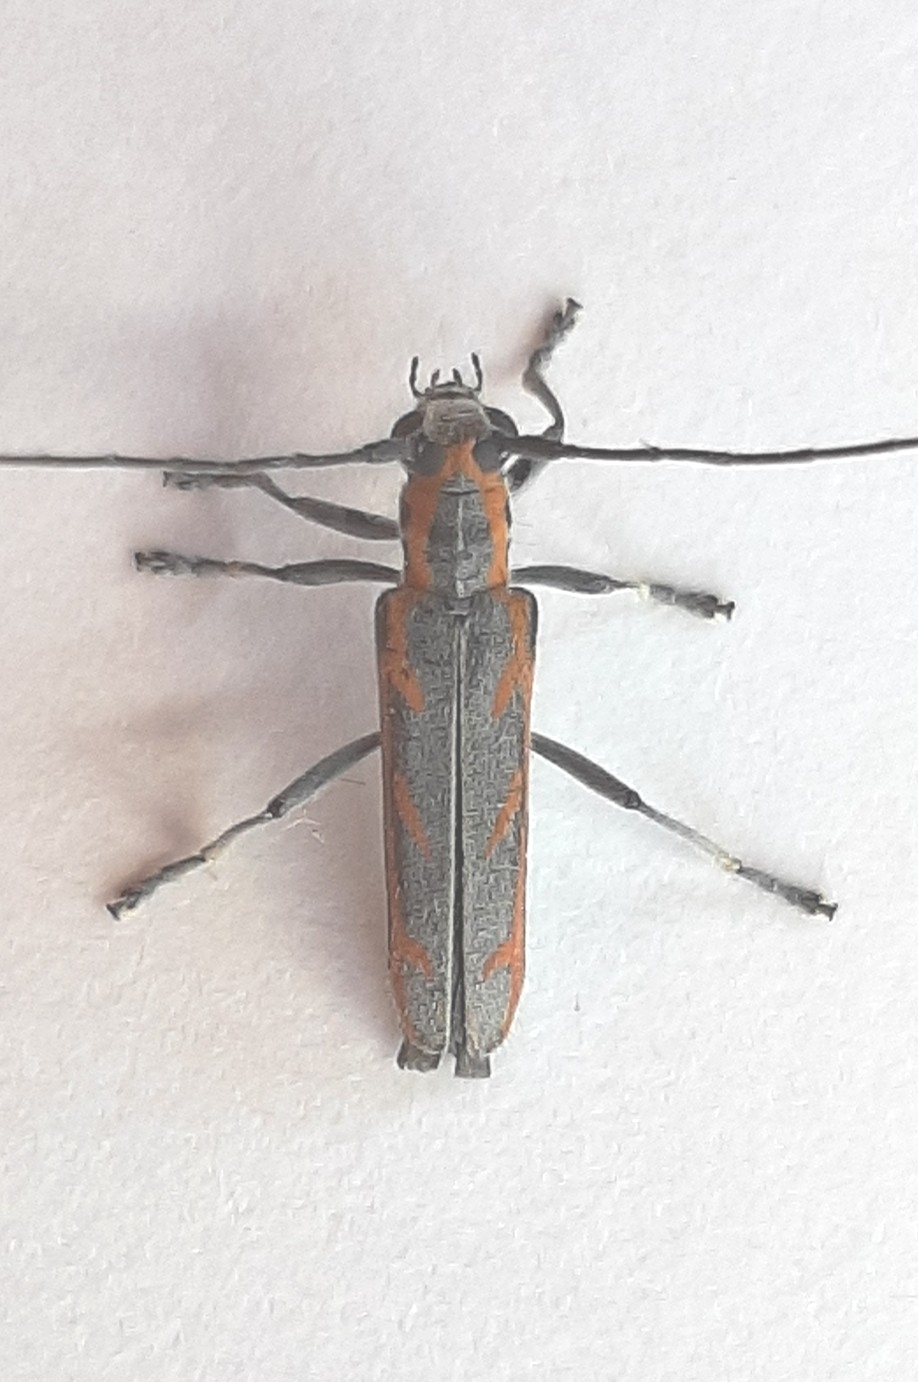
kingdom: Animalia
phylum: Arthropoda
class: Insecta
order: Coleoptera
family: Cerambycidae
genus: Saperda
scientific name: Saperda imitans
